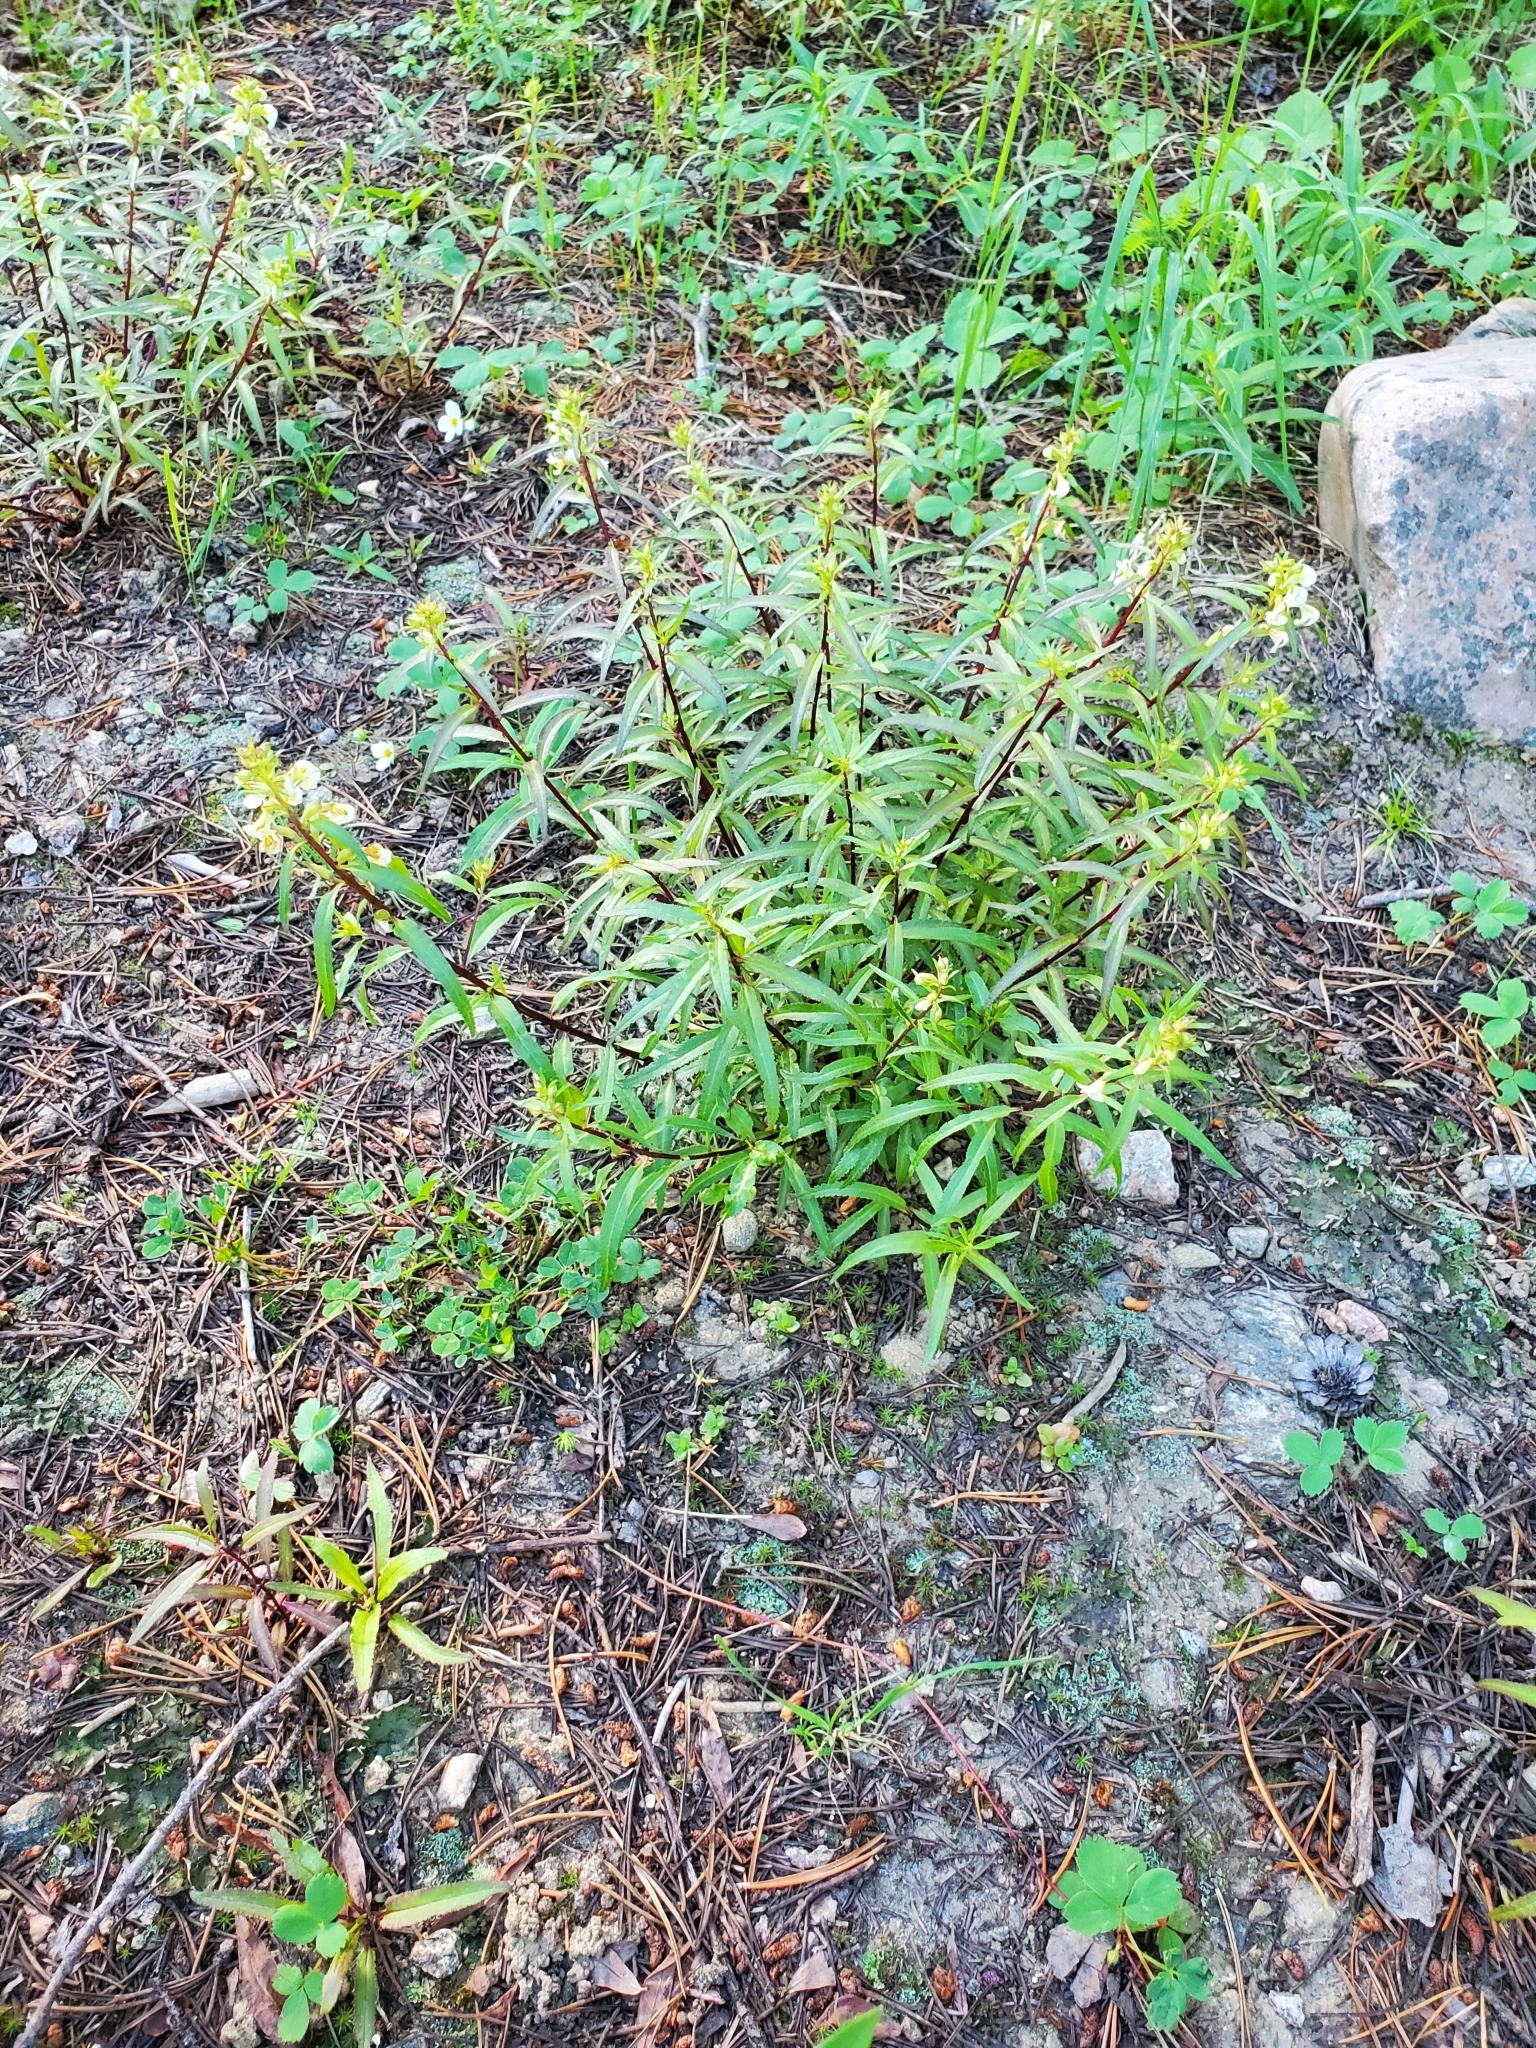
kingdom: Plantae
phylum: Tracheophyta
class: Magnoliopsida
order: Lamiales
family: Orobanchaceae
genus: Pedicularis
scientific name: Pedicularis racemosa
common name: Leafy lousewort
